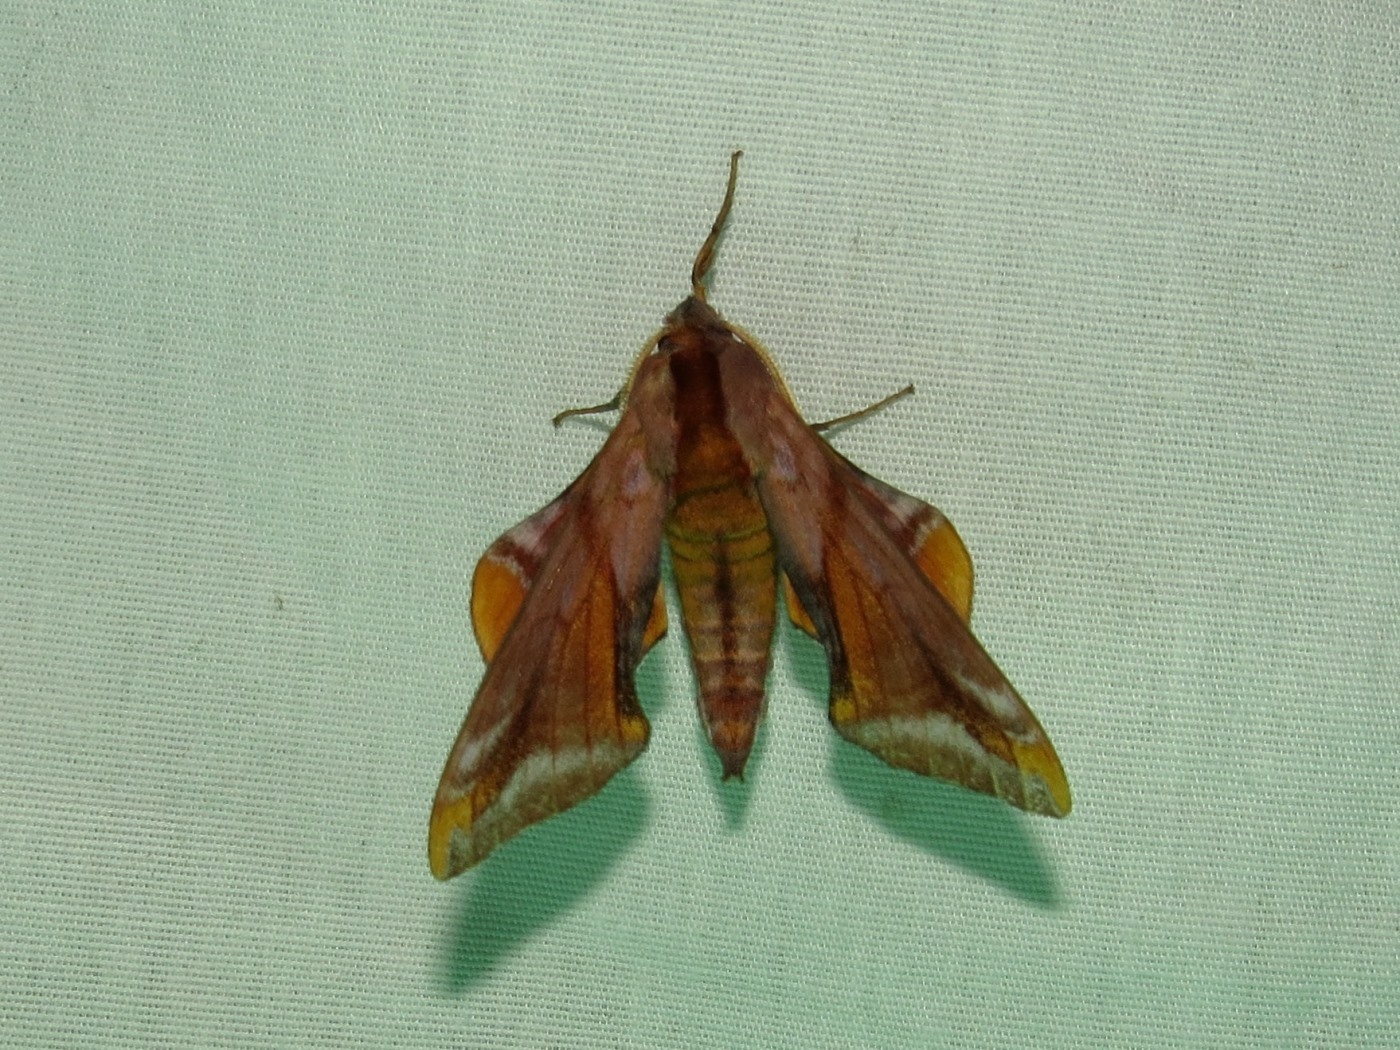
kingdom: Animalia
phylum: Arthropoda
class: Insecta
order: Lepidoptera
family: Sphingidae
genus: Paonias
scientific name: Paonias astylus
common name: Huckleberry sphinx
